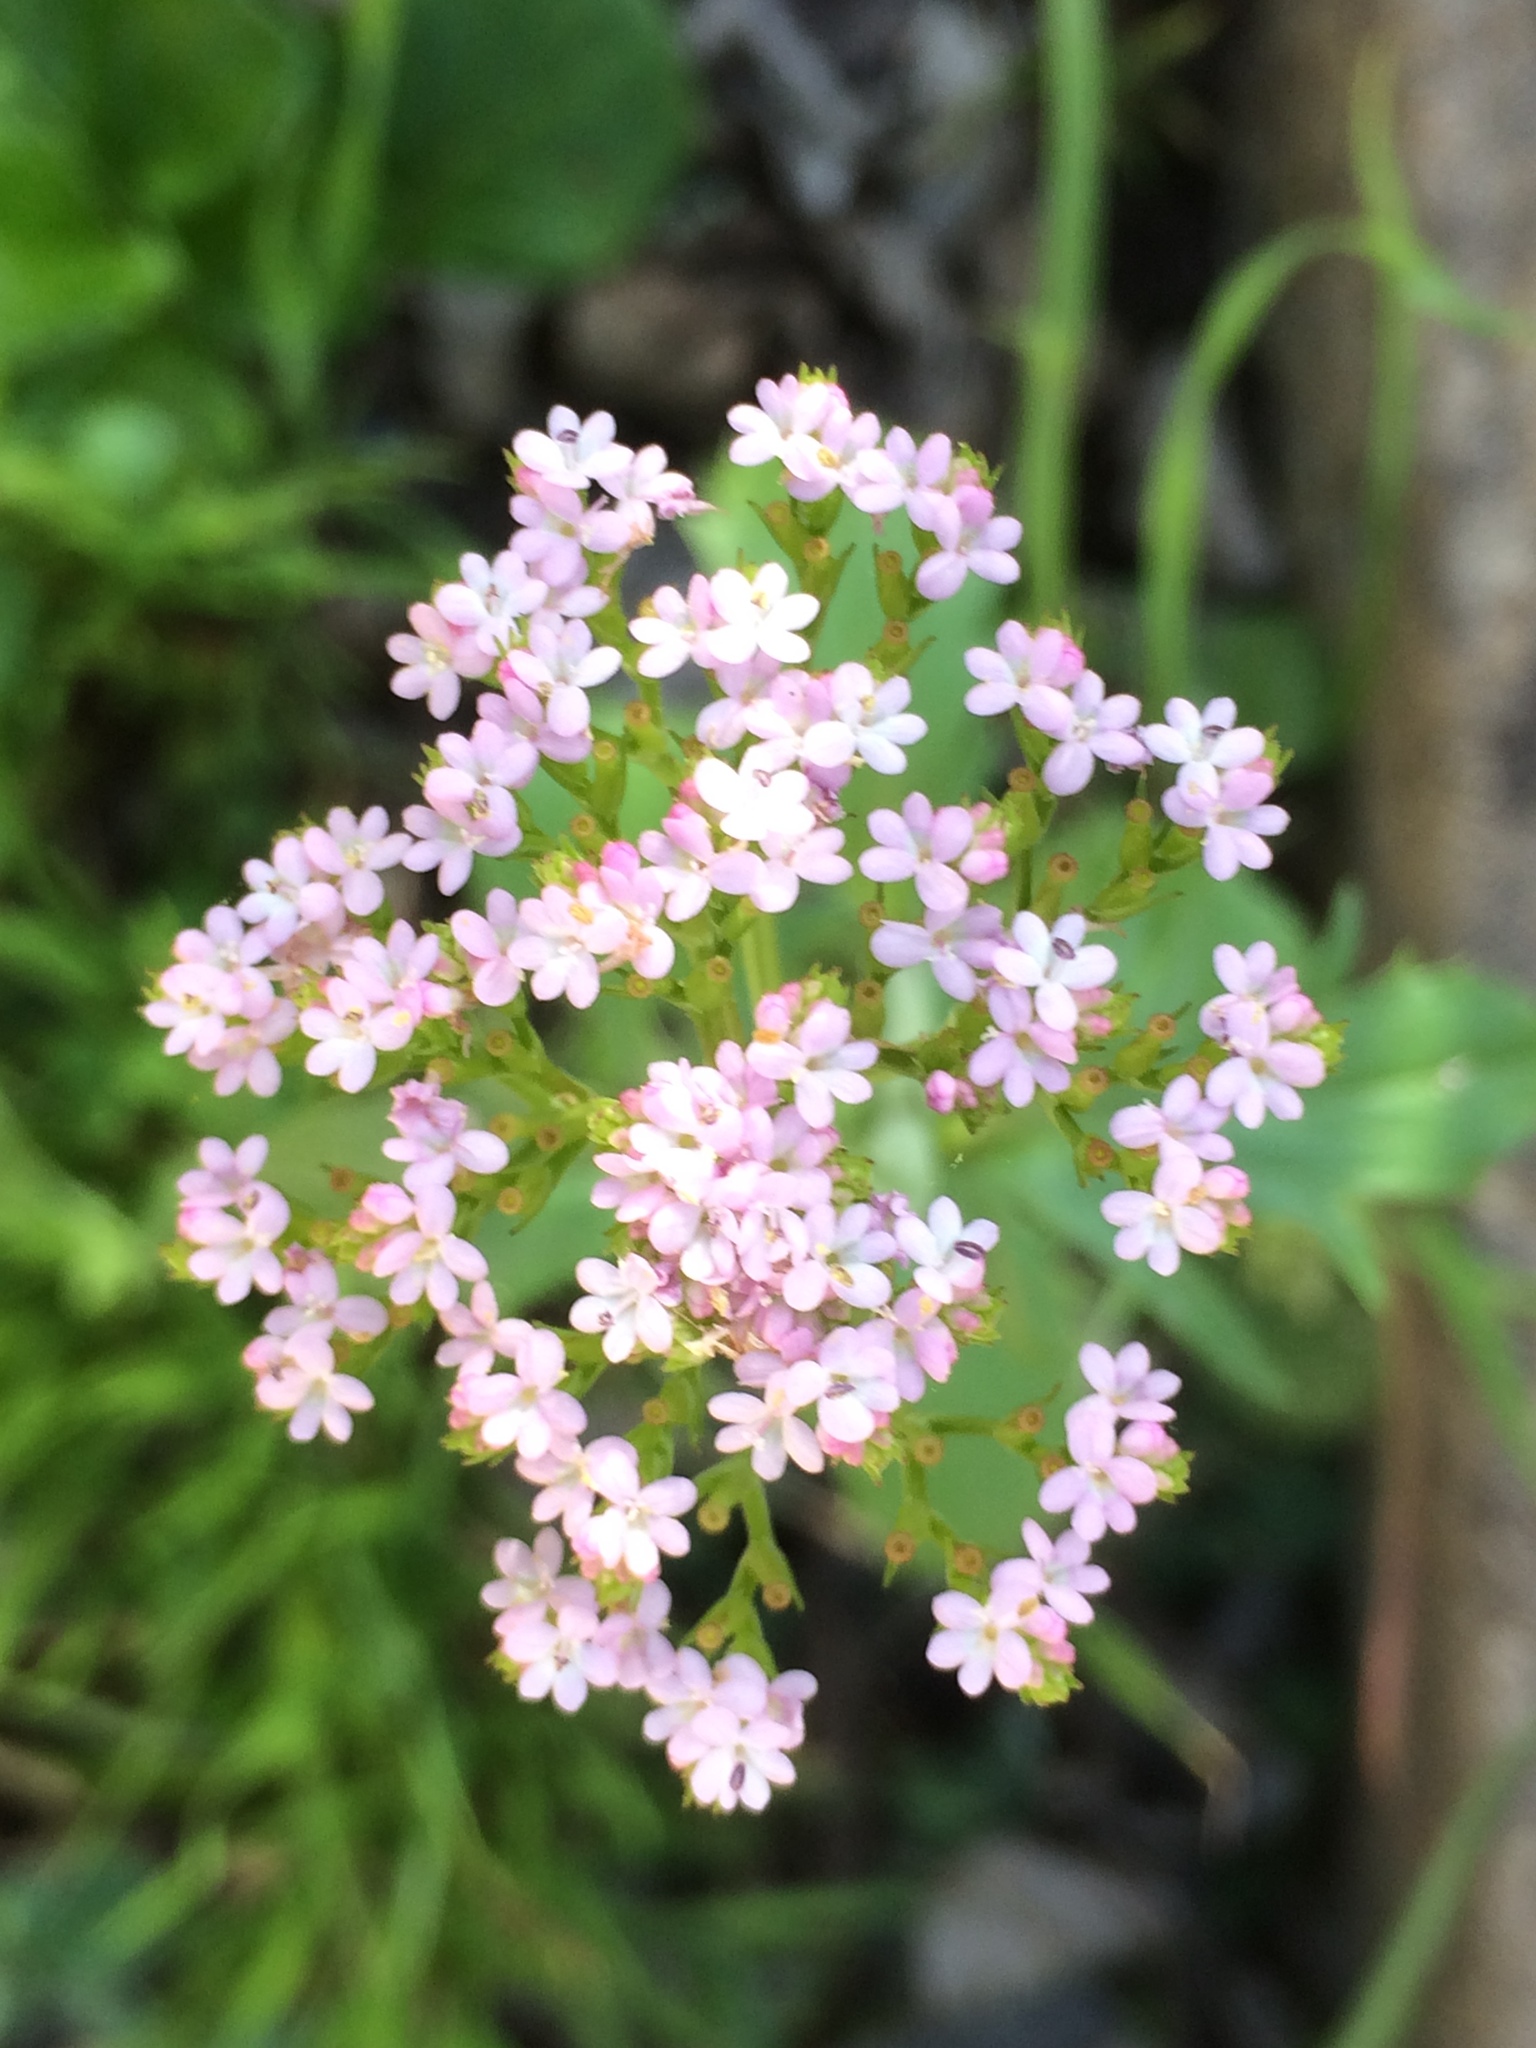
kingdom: Plantae
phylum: Tracheophyta
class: Magnoliopsida
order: Dipsacales
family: Caprifoliaceae
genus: Centranthus
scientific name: Centranthus calcitrapae
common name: Annual valerian
